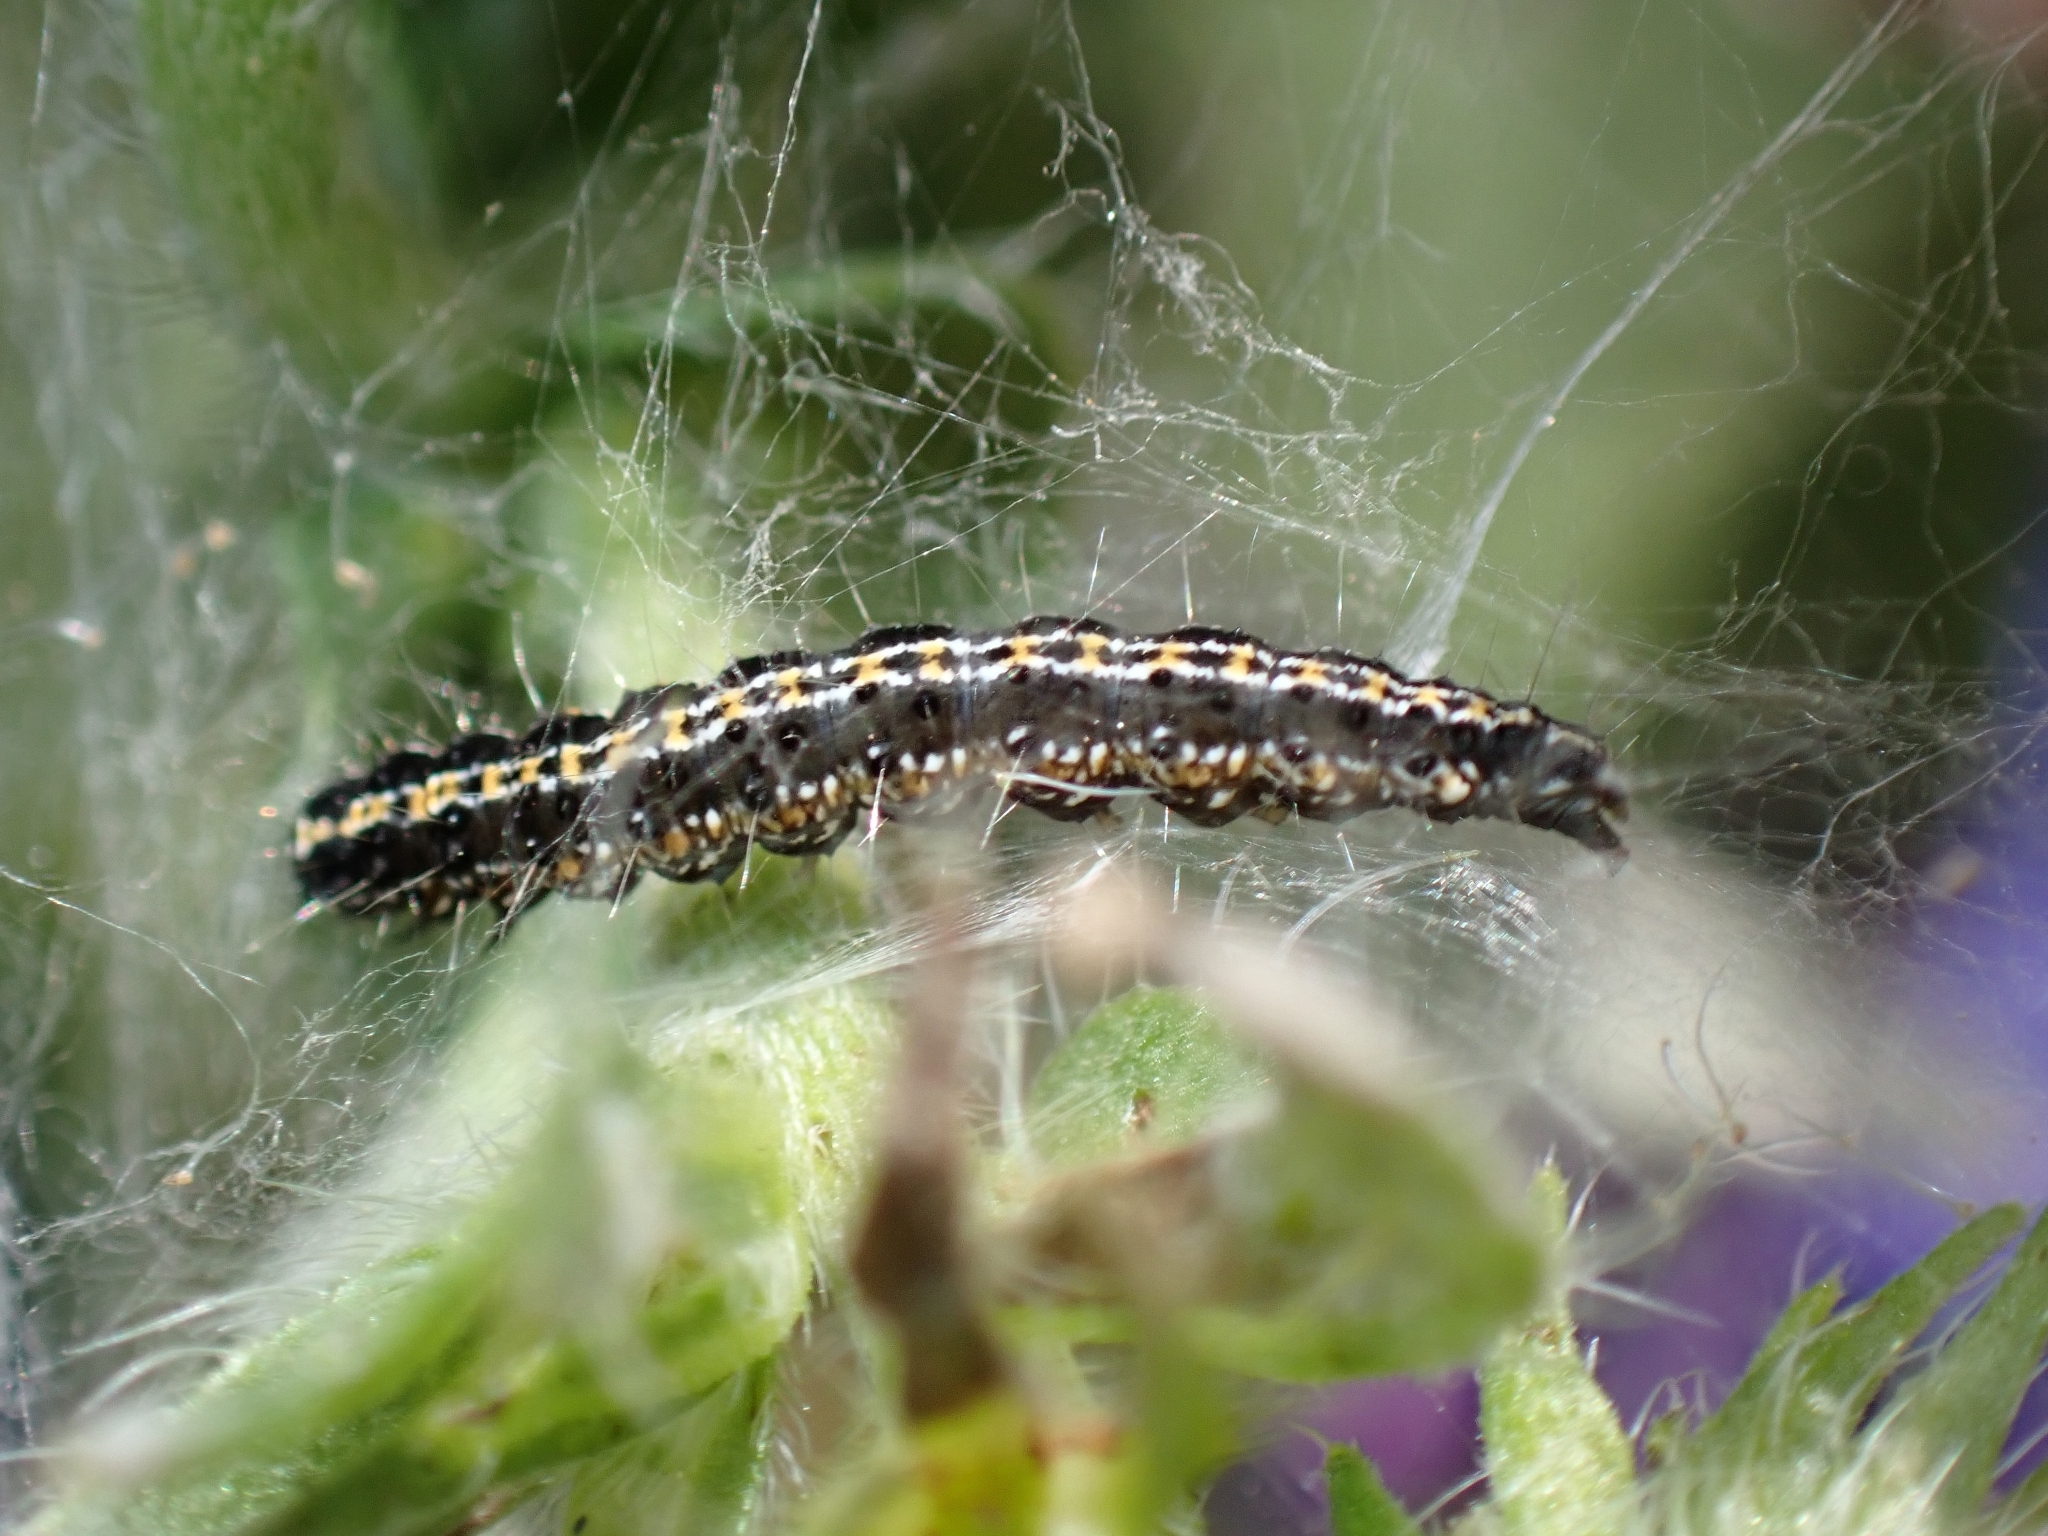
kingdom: Animalia
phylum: Arthropoda
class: Insecta
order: Lepidoptera
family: Ethmiidae
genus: Ethmia
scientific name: Ethmia bipunctella
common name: Bordered ermel
